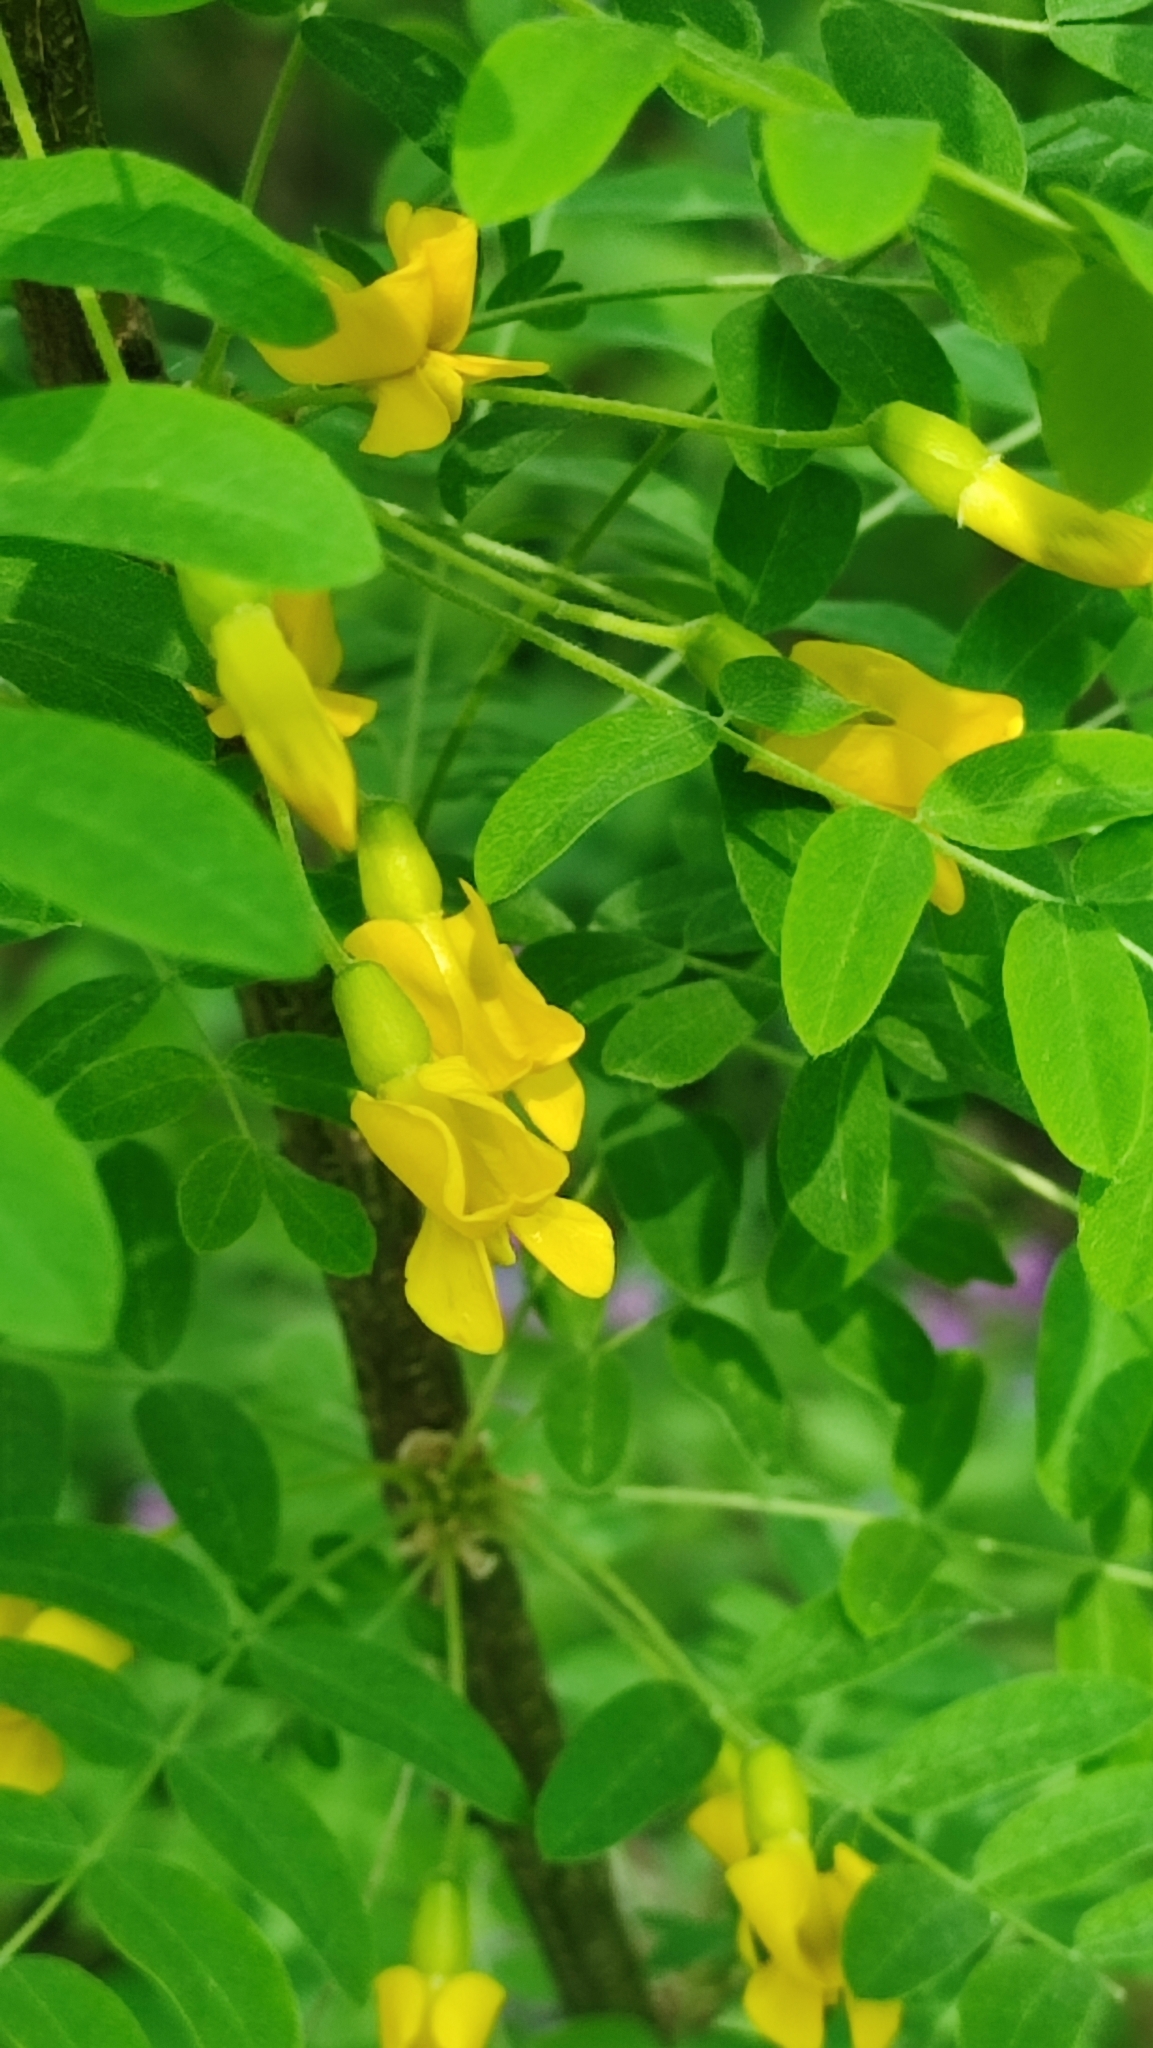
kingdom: Plantae
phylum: Tracheophyta
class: Magnoliopsida
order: Fabales
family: Fabaceae
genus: Caragana
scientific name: Caragana arborescens
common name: Siberian peashrub
